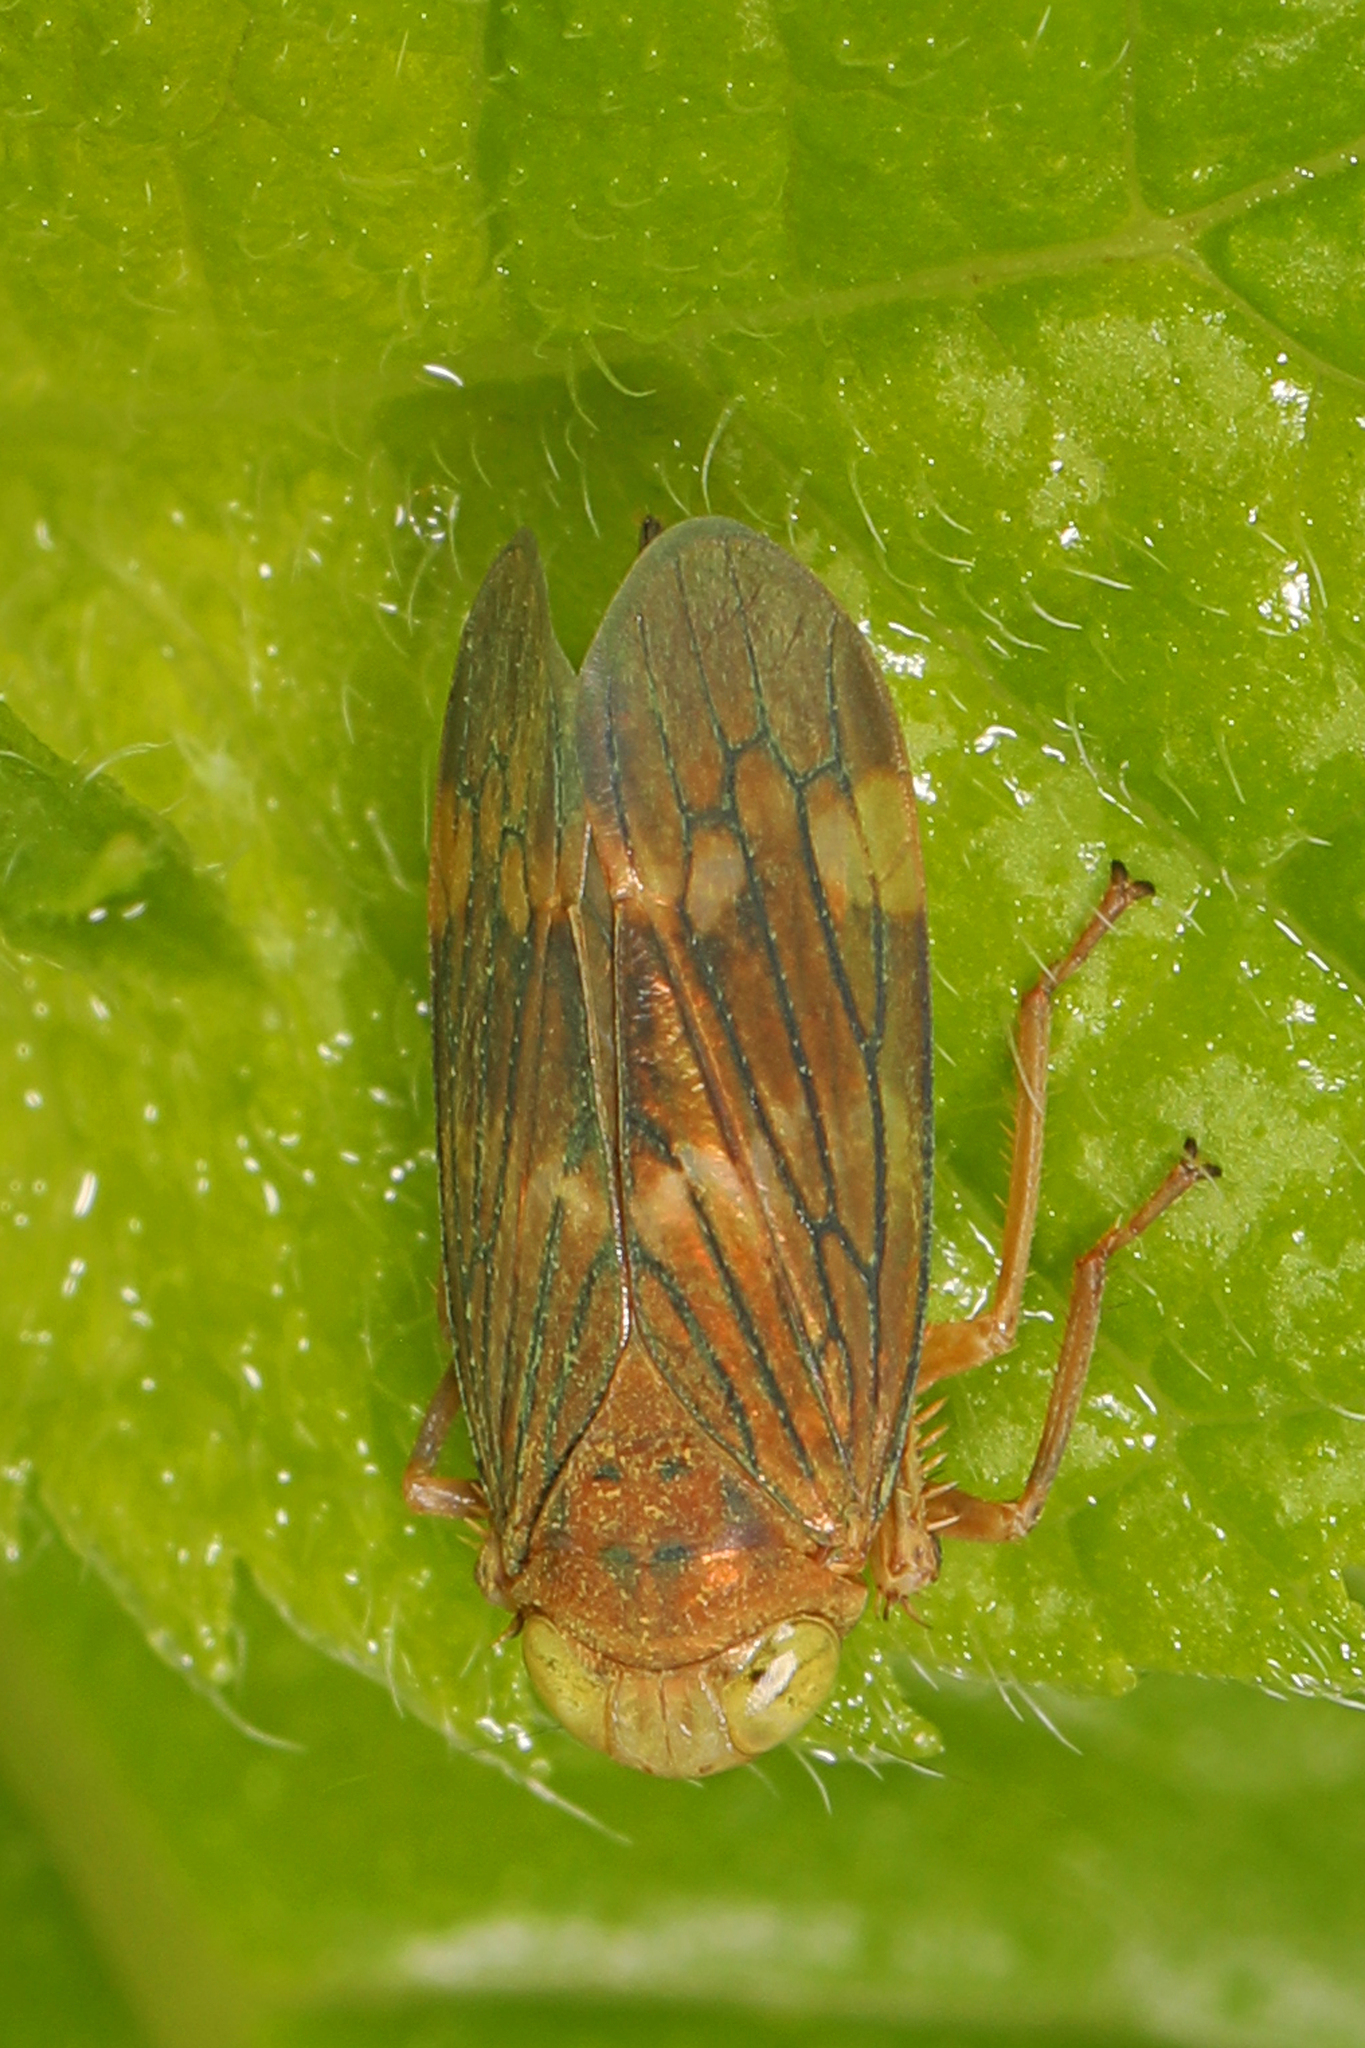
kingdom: Animalia
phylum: Arthropoda
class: Insecta
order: Hemiptera
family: Cicadellidae
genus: Jikradia
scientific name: Jikradia olitoria
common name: Coppery leafhopper
